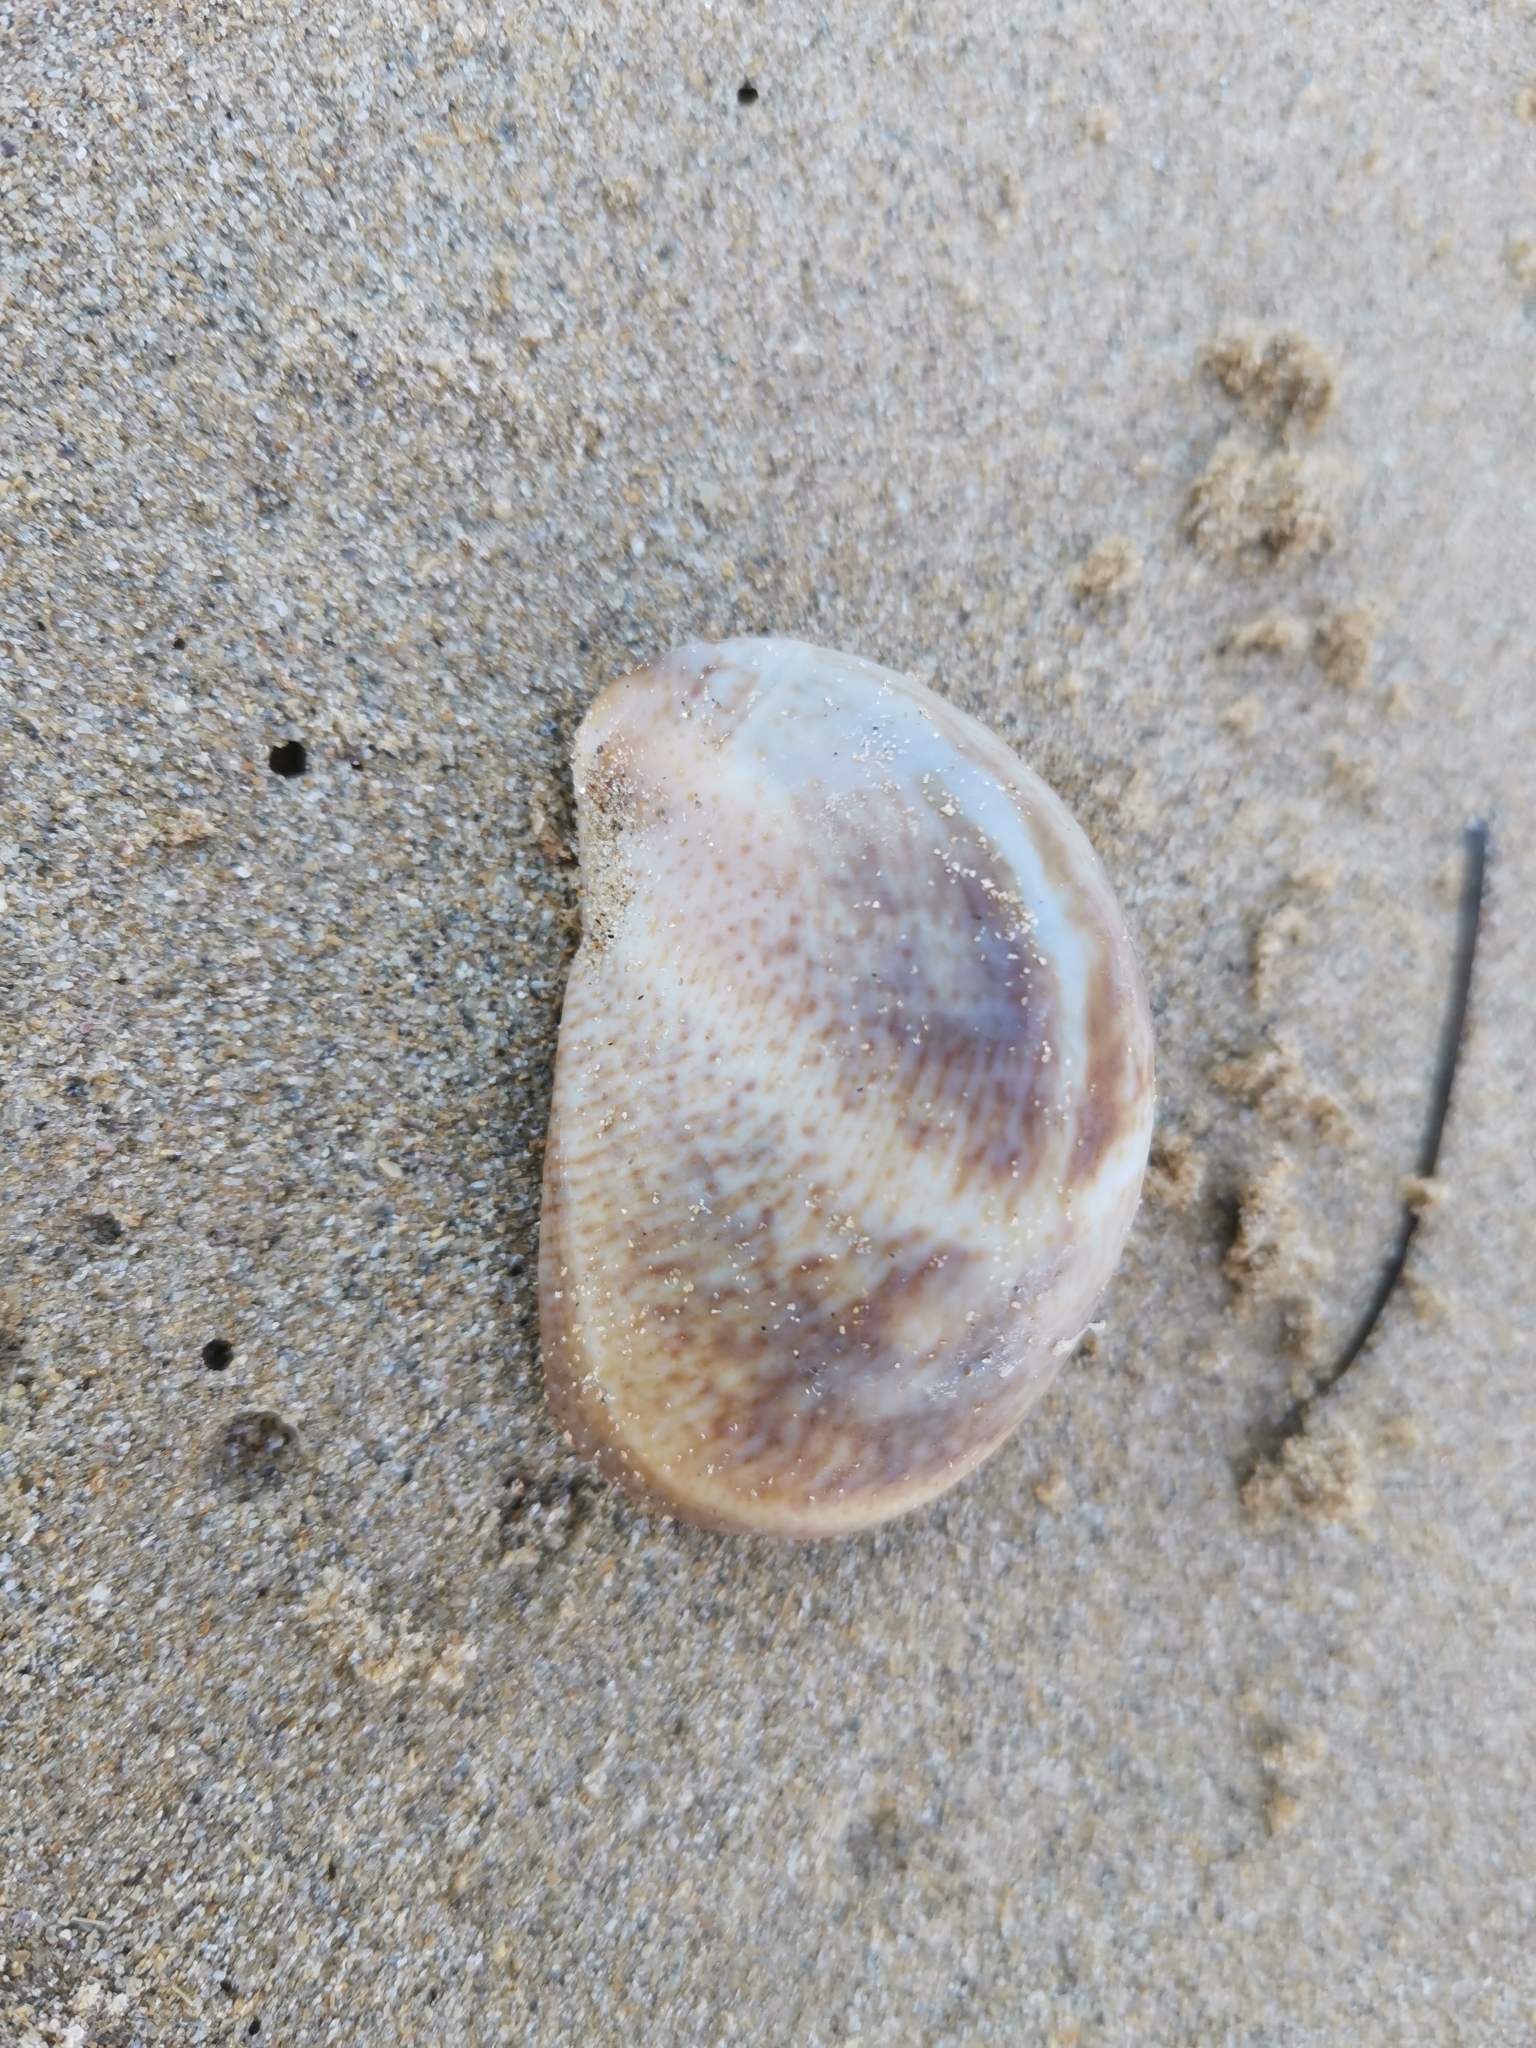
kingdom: Animalia
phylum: Mollusca
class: Gastropoda
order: Littorinimorpha
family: Calyptraeidae
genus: Crepidula
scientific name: Crepidula fornicata
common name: Slipper limpet
